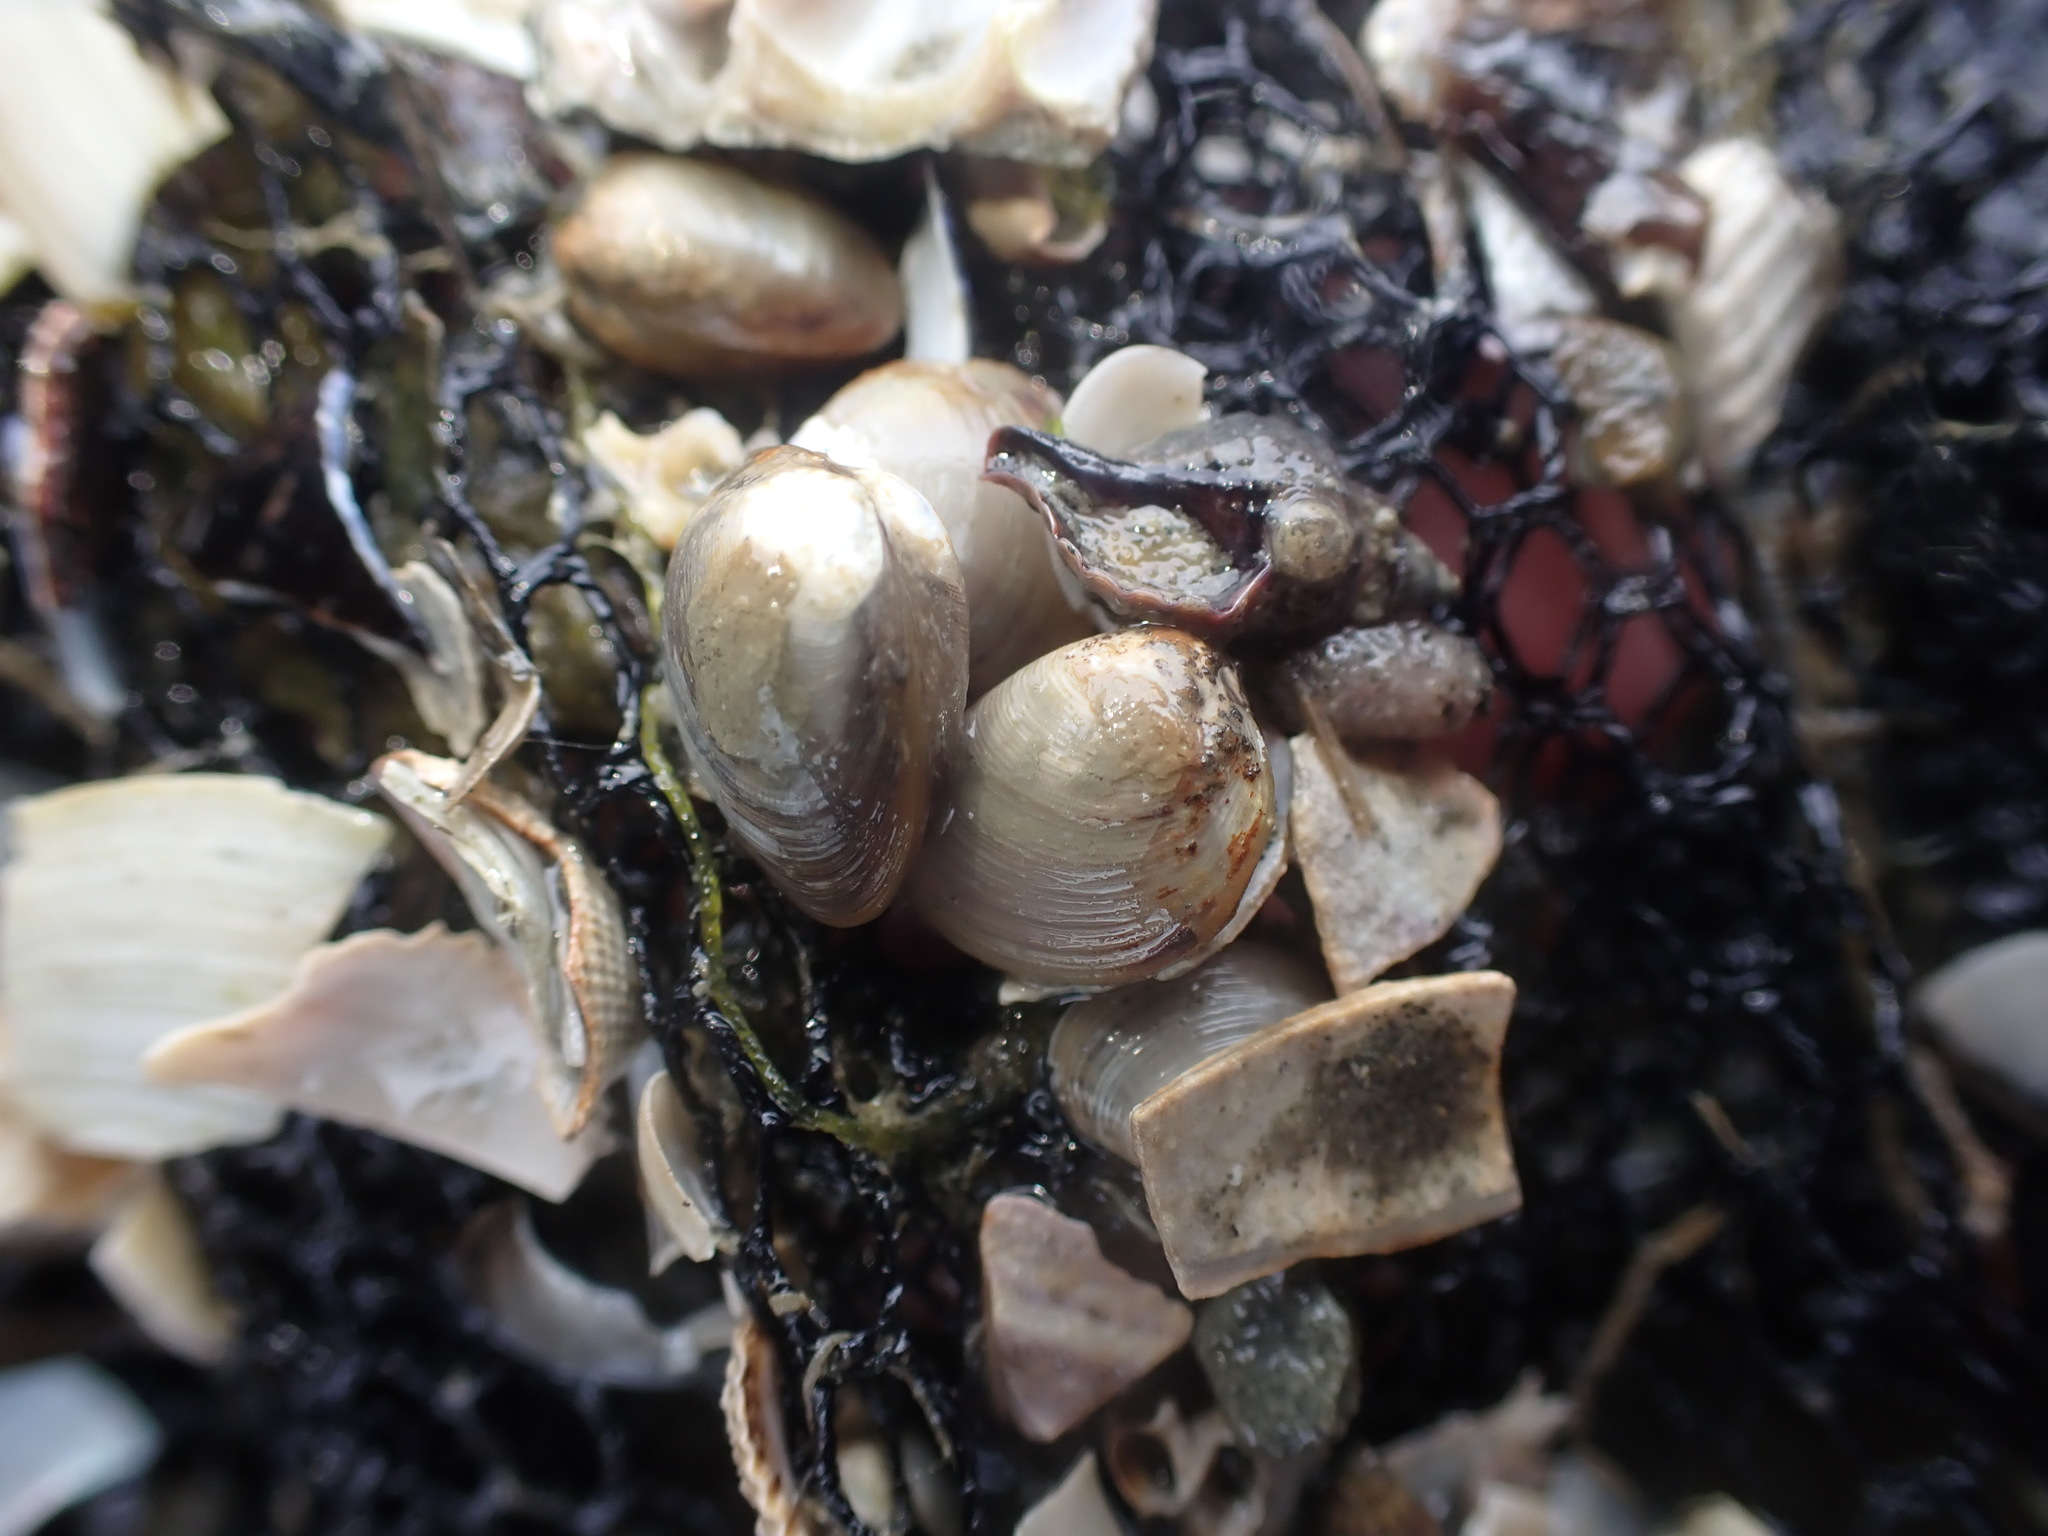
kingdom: Animalia
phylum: Mollusca
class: Bivalvia
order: Nuculida
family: Nuculidae
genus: Linucula
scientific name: Linucula hartvigiana
